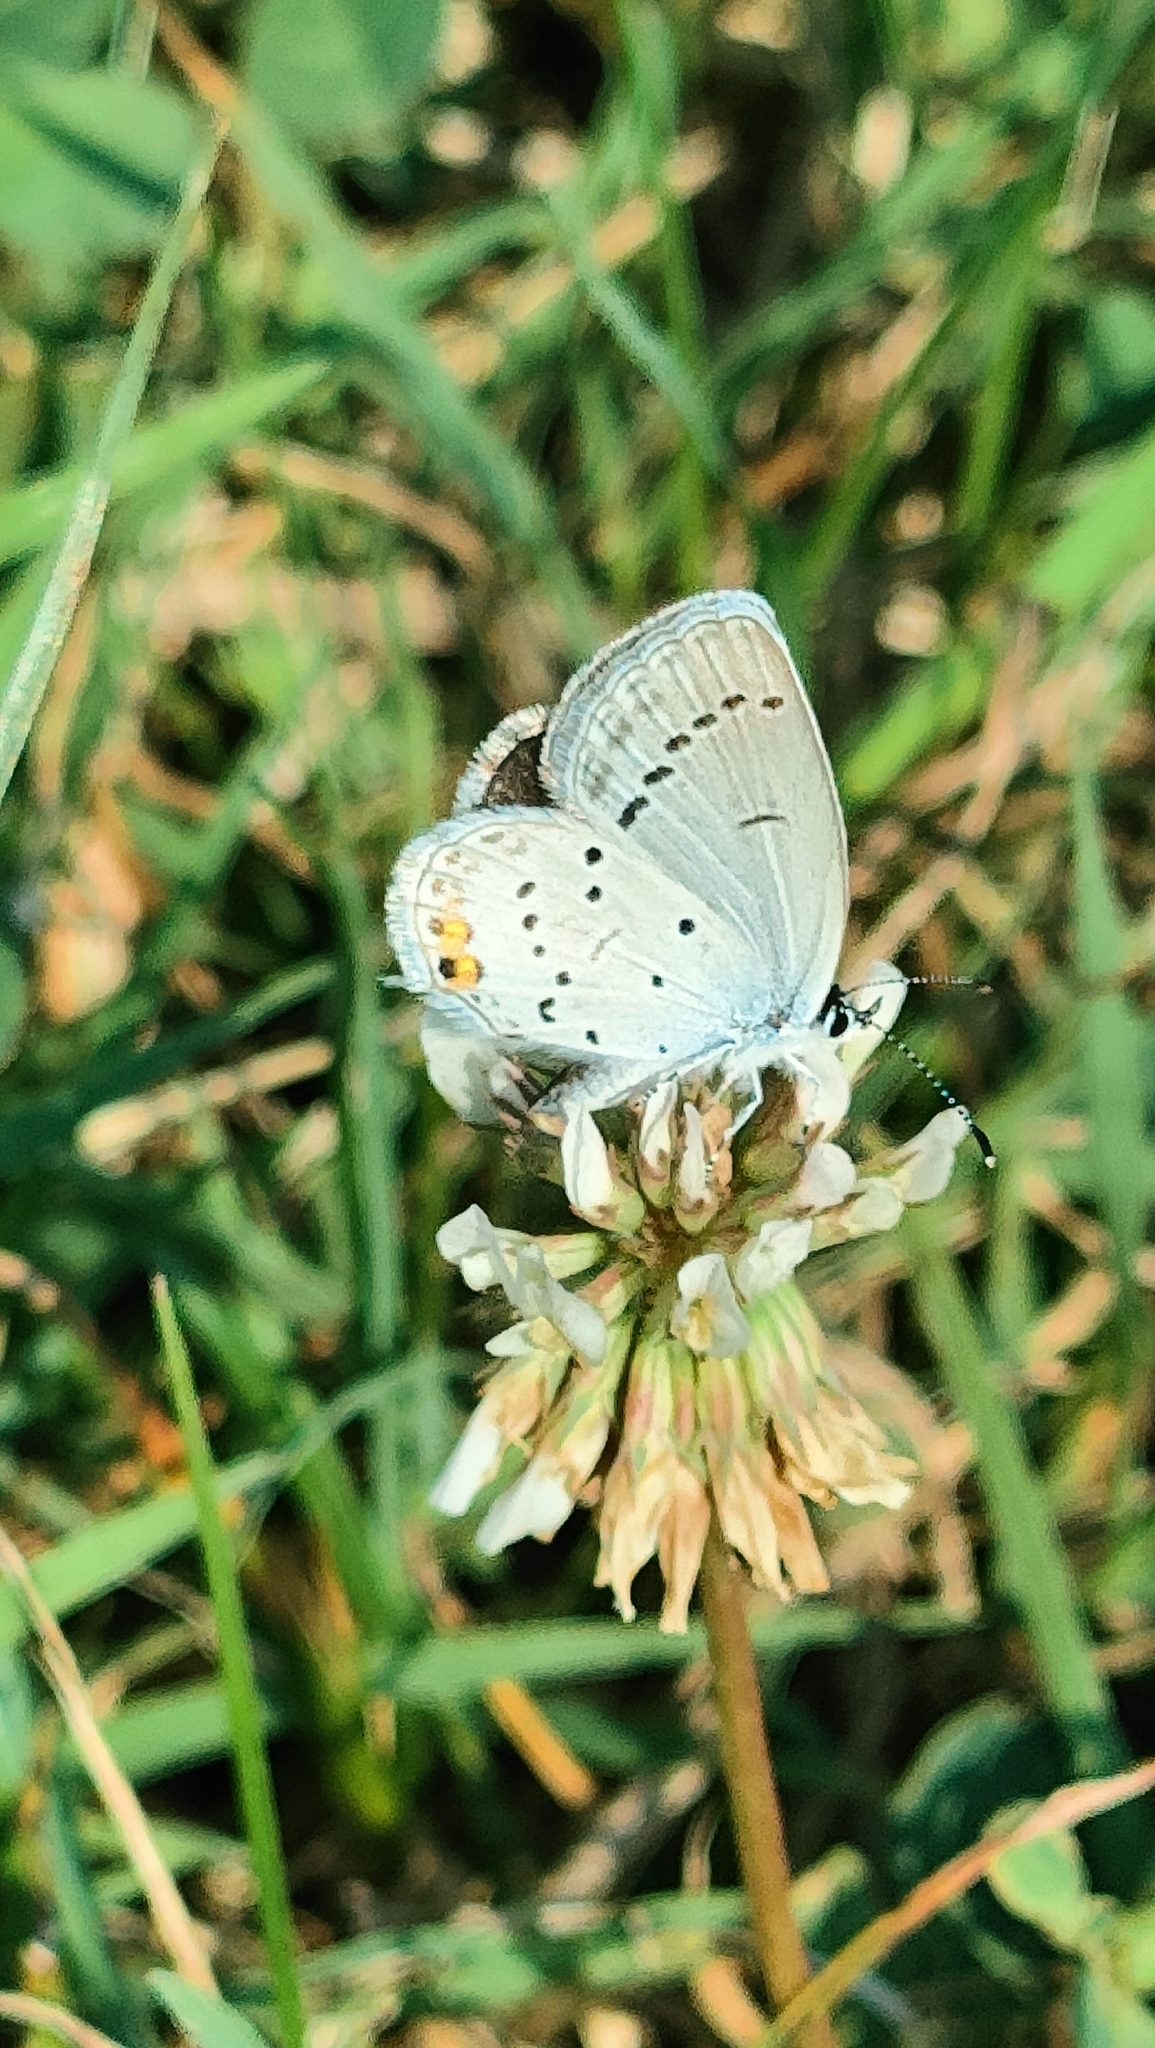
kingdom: Animalia
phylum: Arthropoda
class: Insecta
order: Lepidoptera
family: Lycaenidae
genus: Elkalyce
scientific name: Elkalyce argiades
